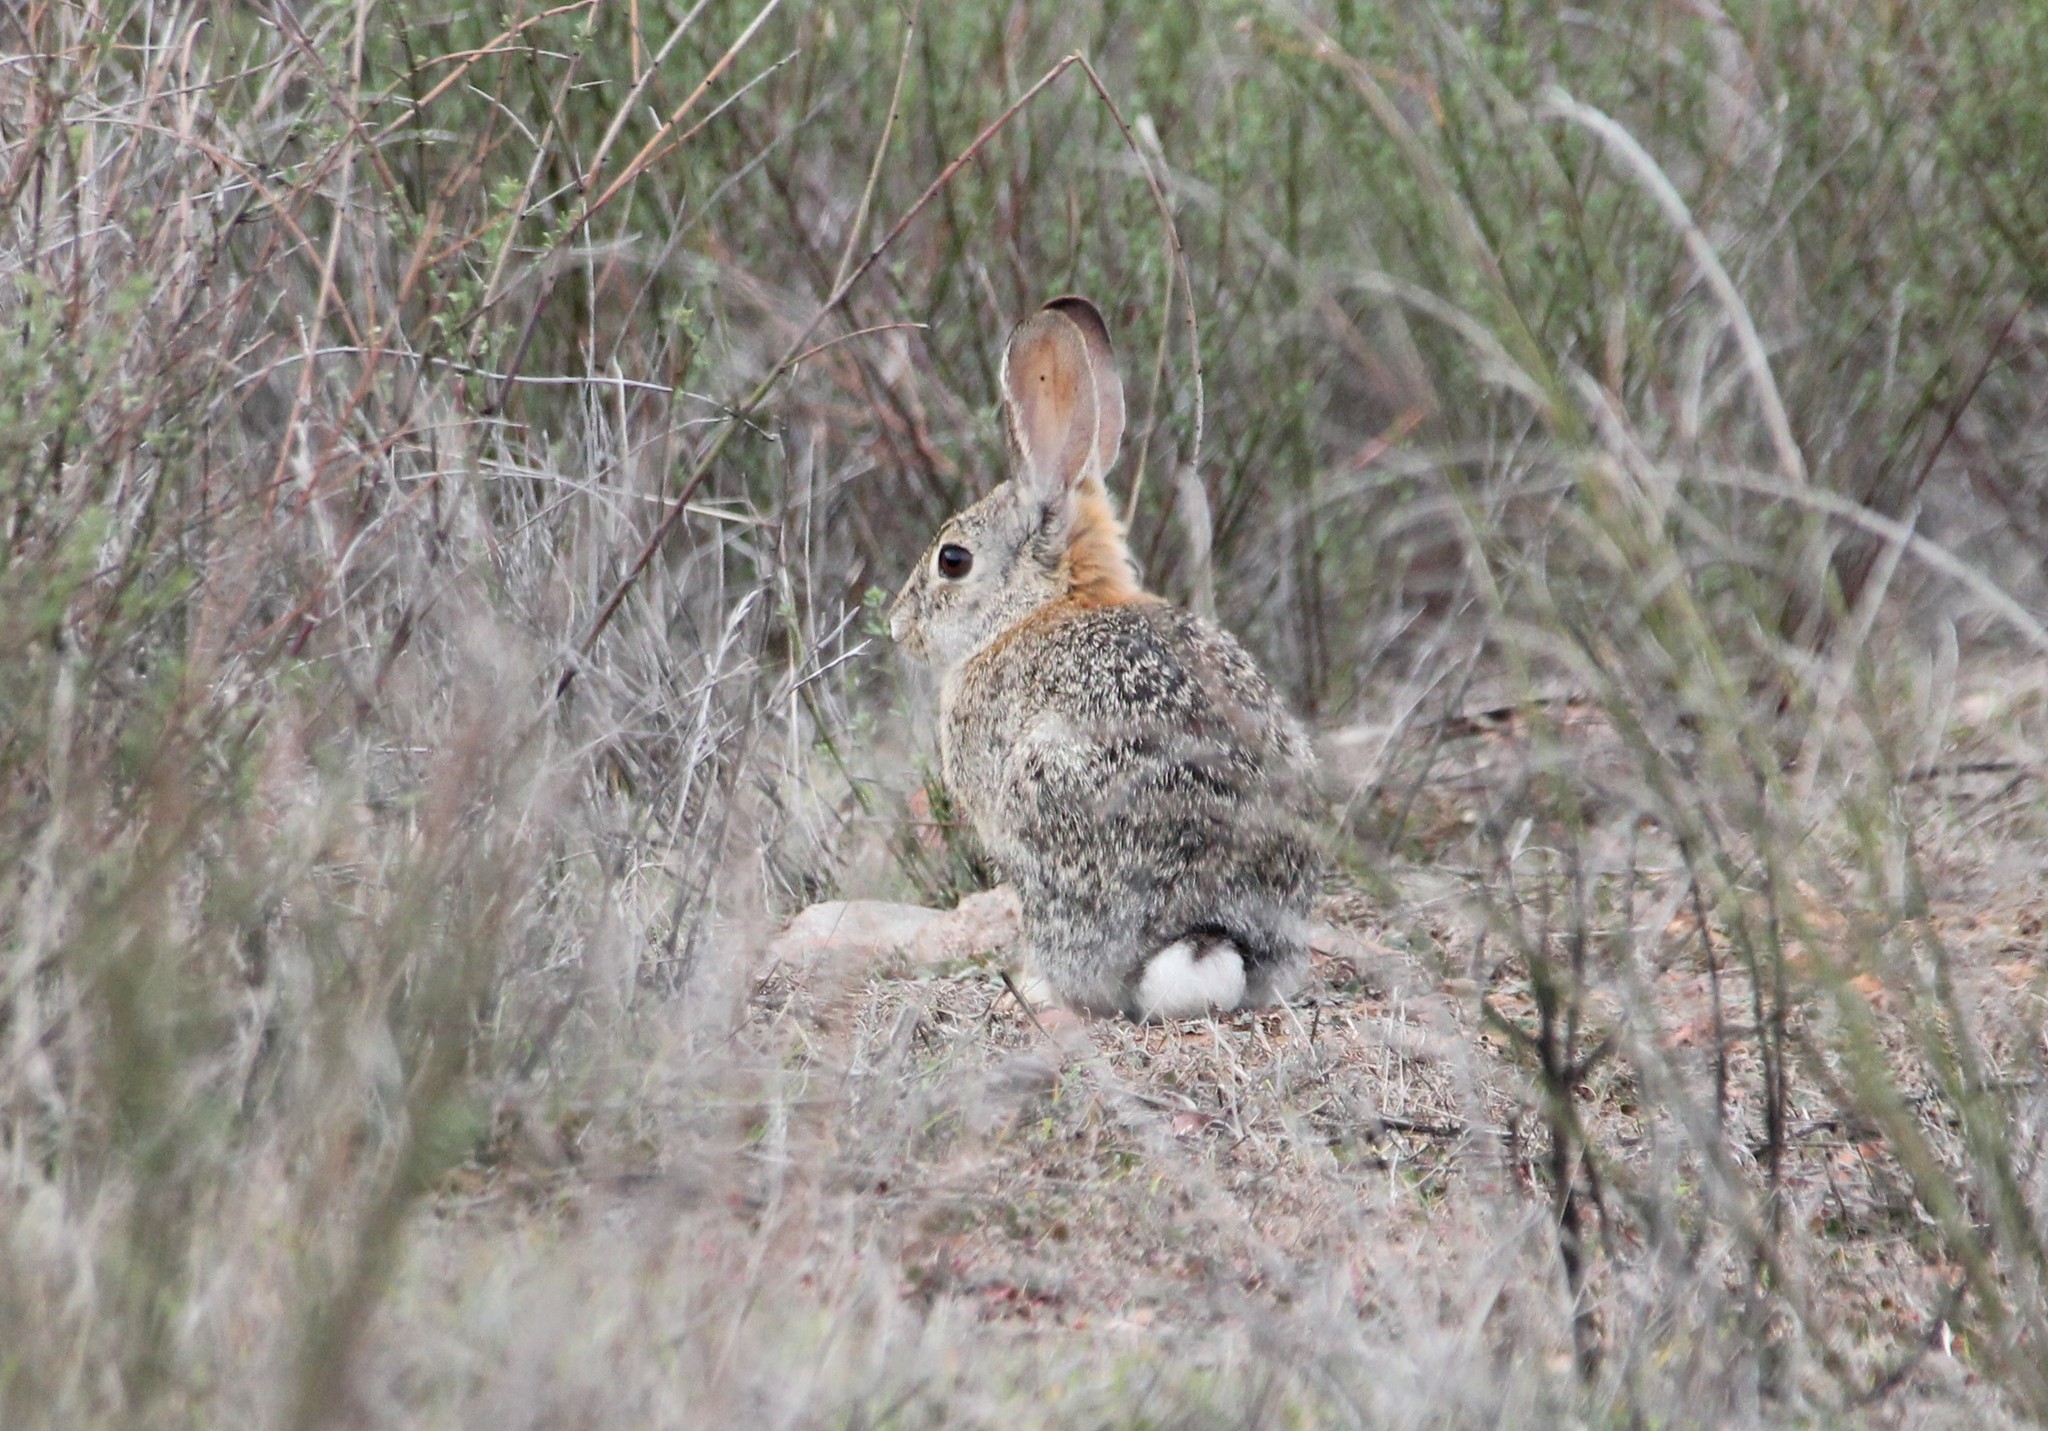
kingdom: Animalia
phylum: Chordata
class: Mammalia
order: Lagomorpha
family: Leporidae
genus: Sylvilagus
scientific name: Sylvilagus audubonii
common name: Desert cottontail
